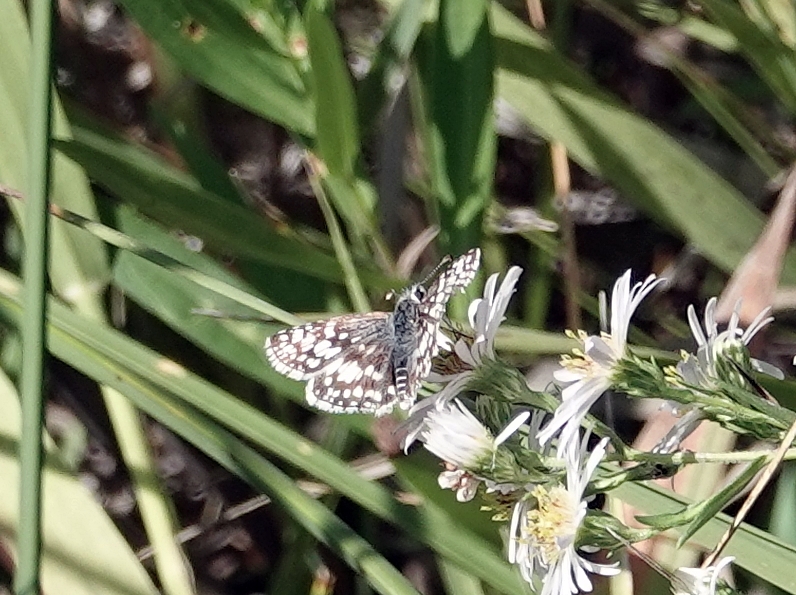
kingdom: Animalia
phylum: Arthropoda
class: Insecta
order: Lepidoptera
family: Hesperiidae
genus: Burnsius
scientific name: Burnsius communis
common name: Common checkered-skipper
